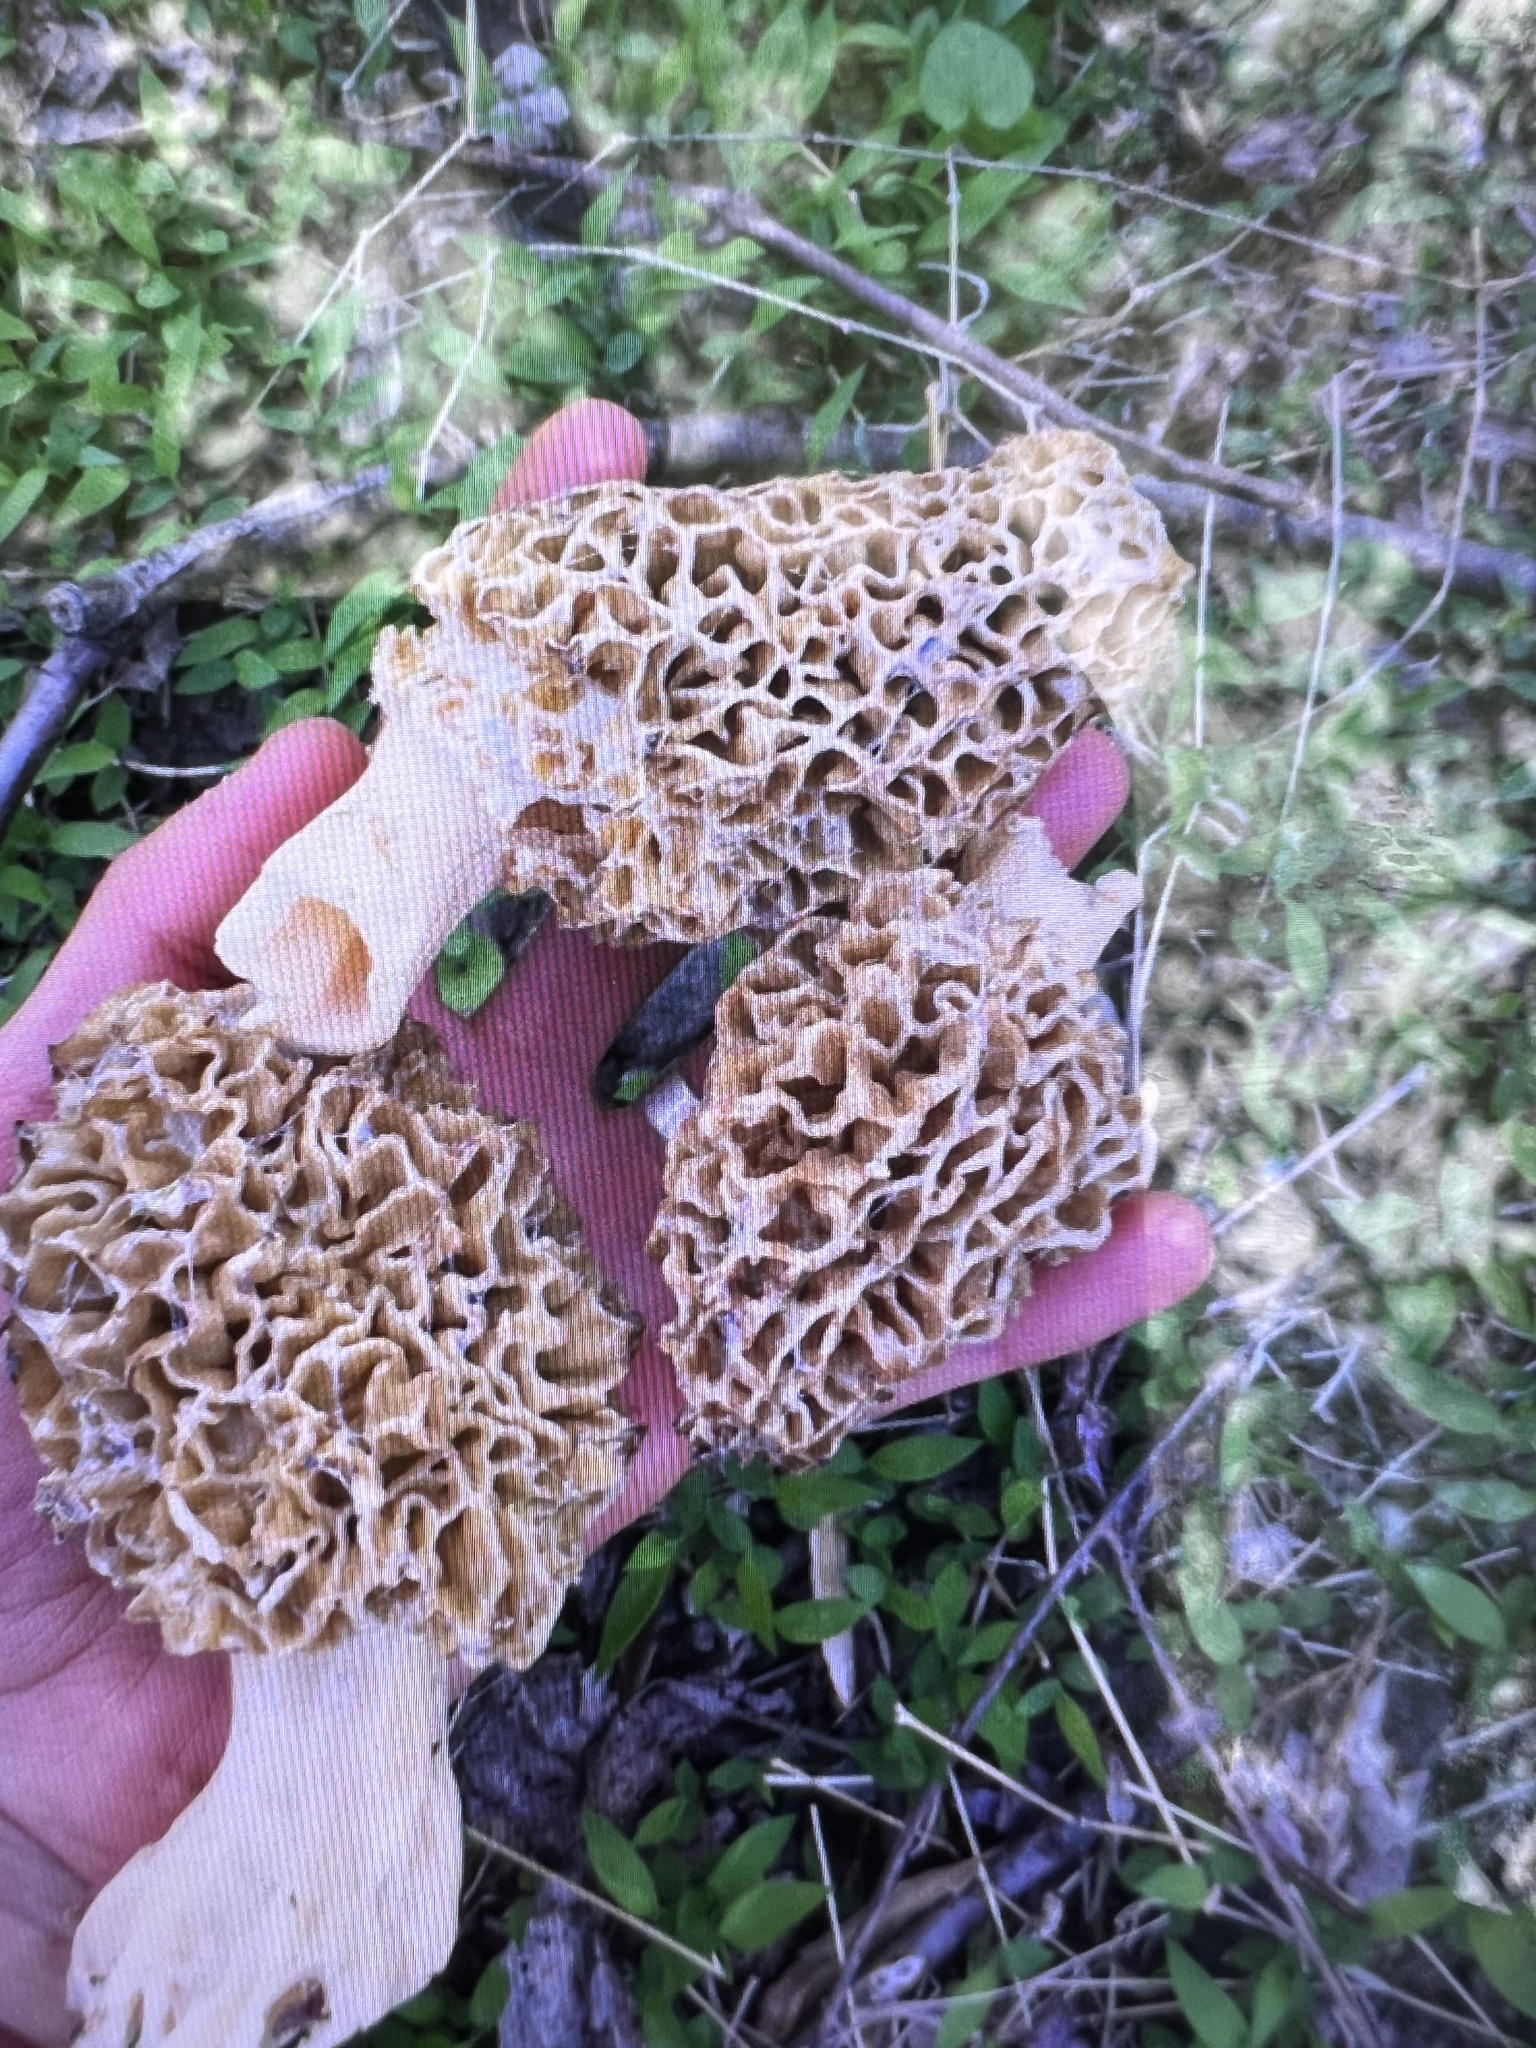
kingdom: Fungi
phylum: Ascomycota
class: Pezizomycetes
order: Pezizales
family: Morchellaceae
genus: Morchella
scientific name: Morchella americana
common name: White morel
